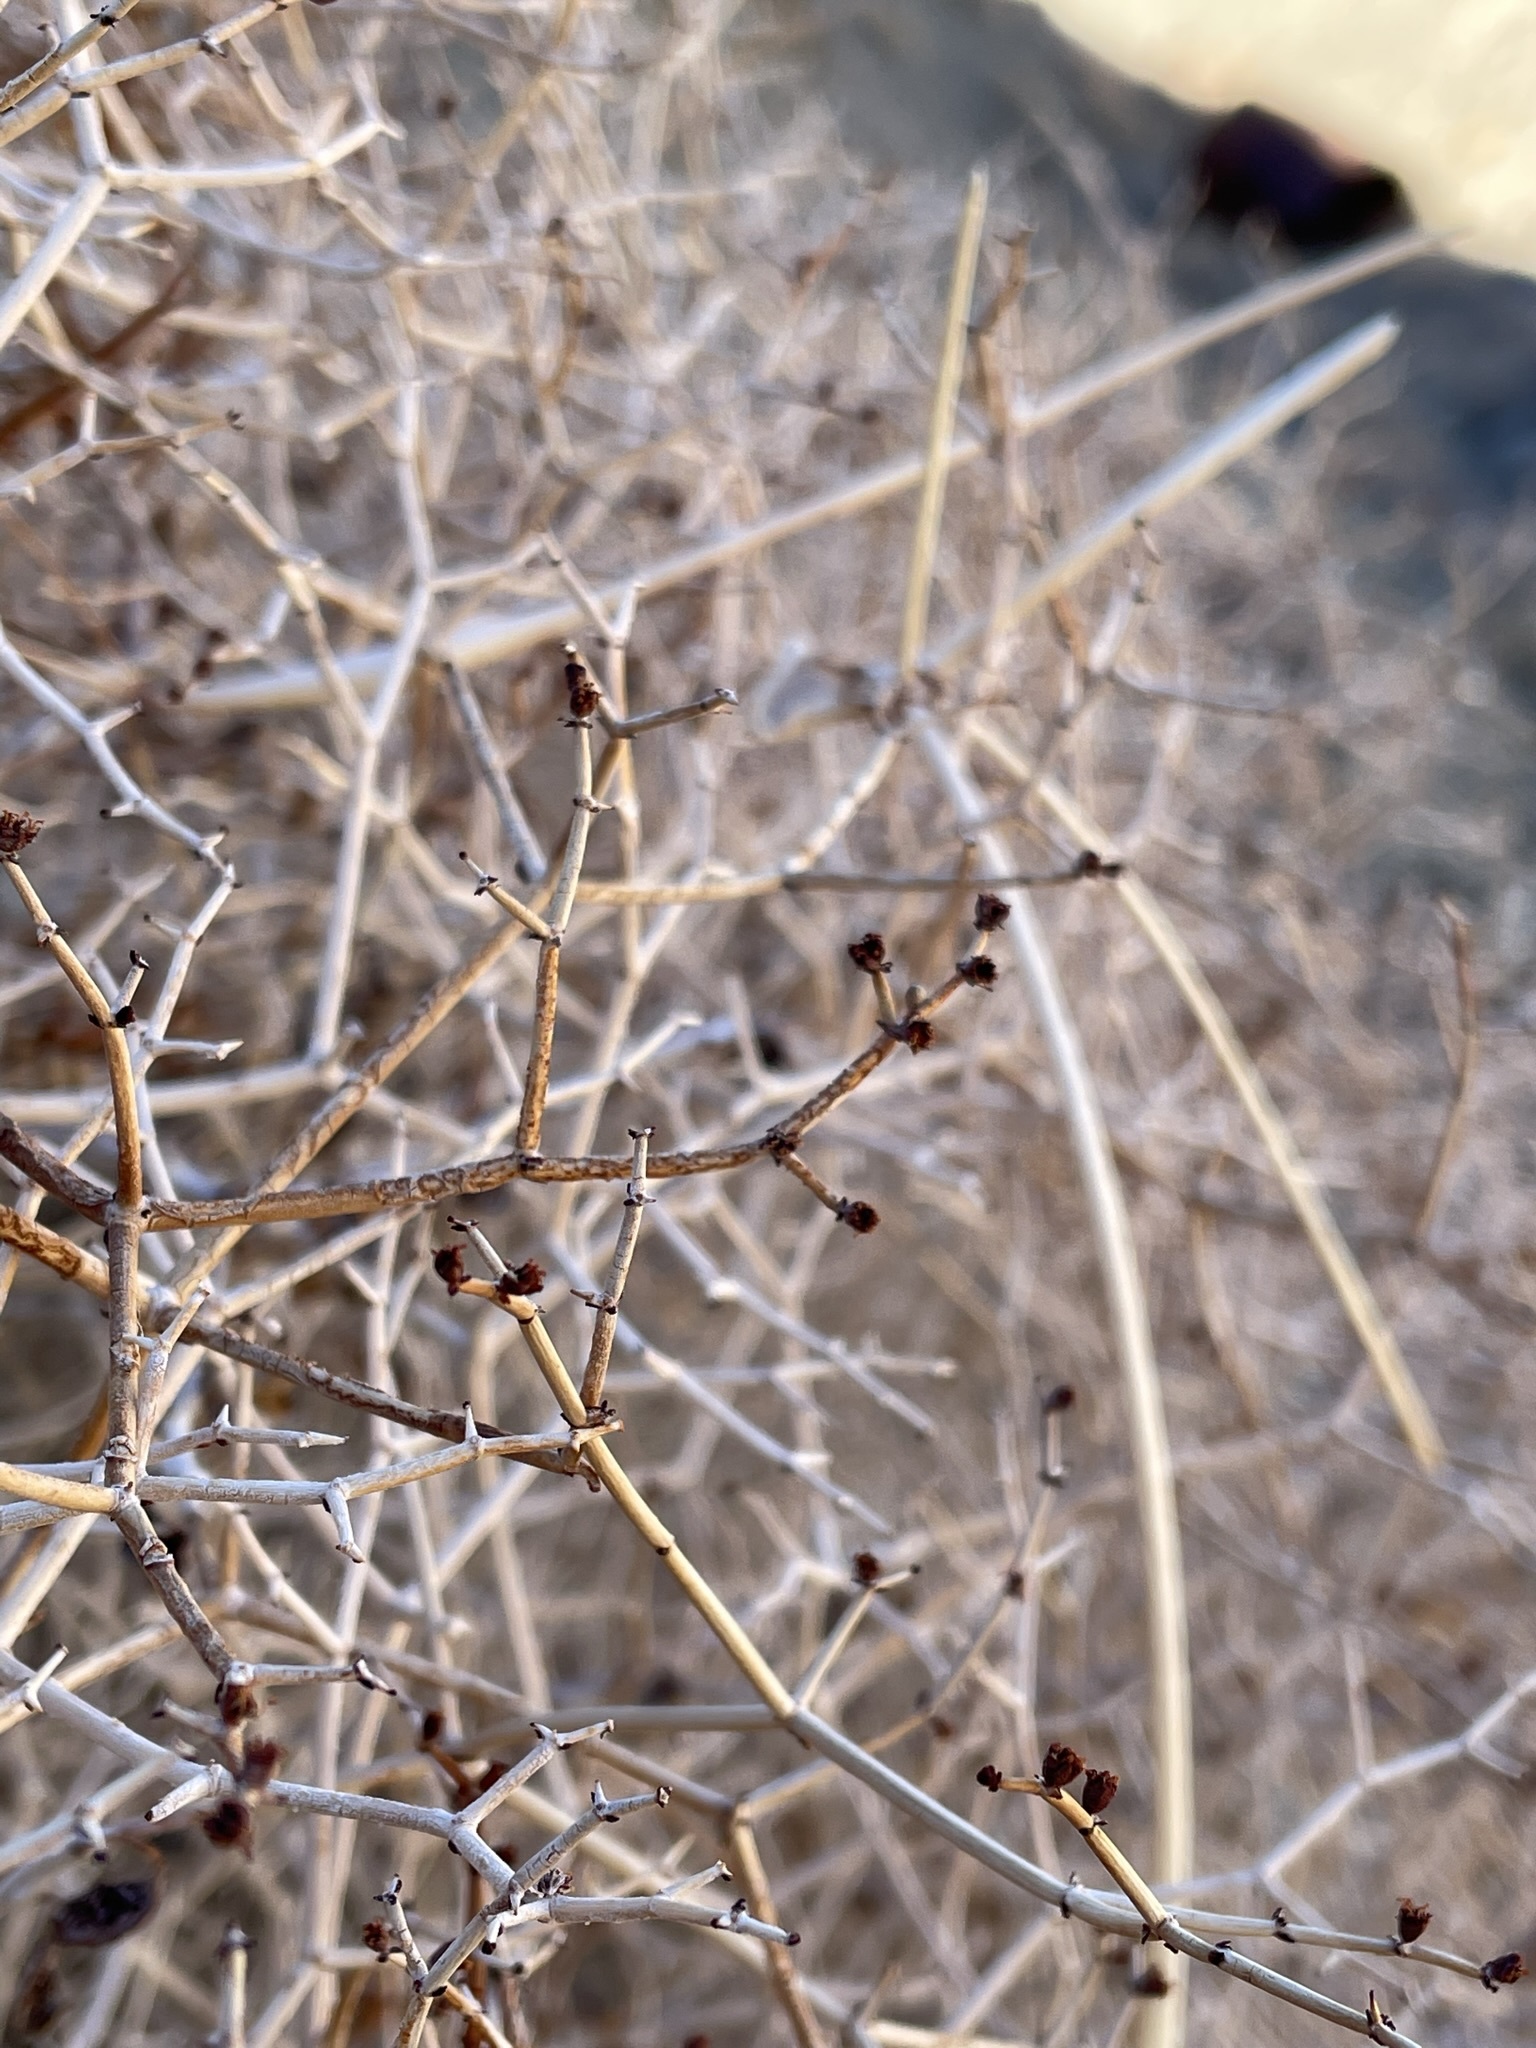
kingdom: Plantae
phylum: Tracheophyta
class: Magnoliopsida
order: Caryophyllales
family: Polygonaceae
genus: Eriogonum
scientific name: Eriogonum heermannii
